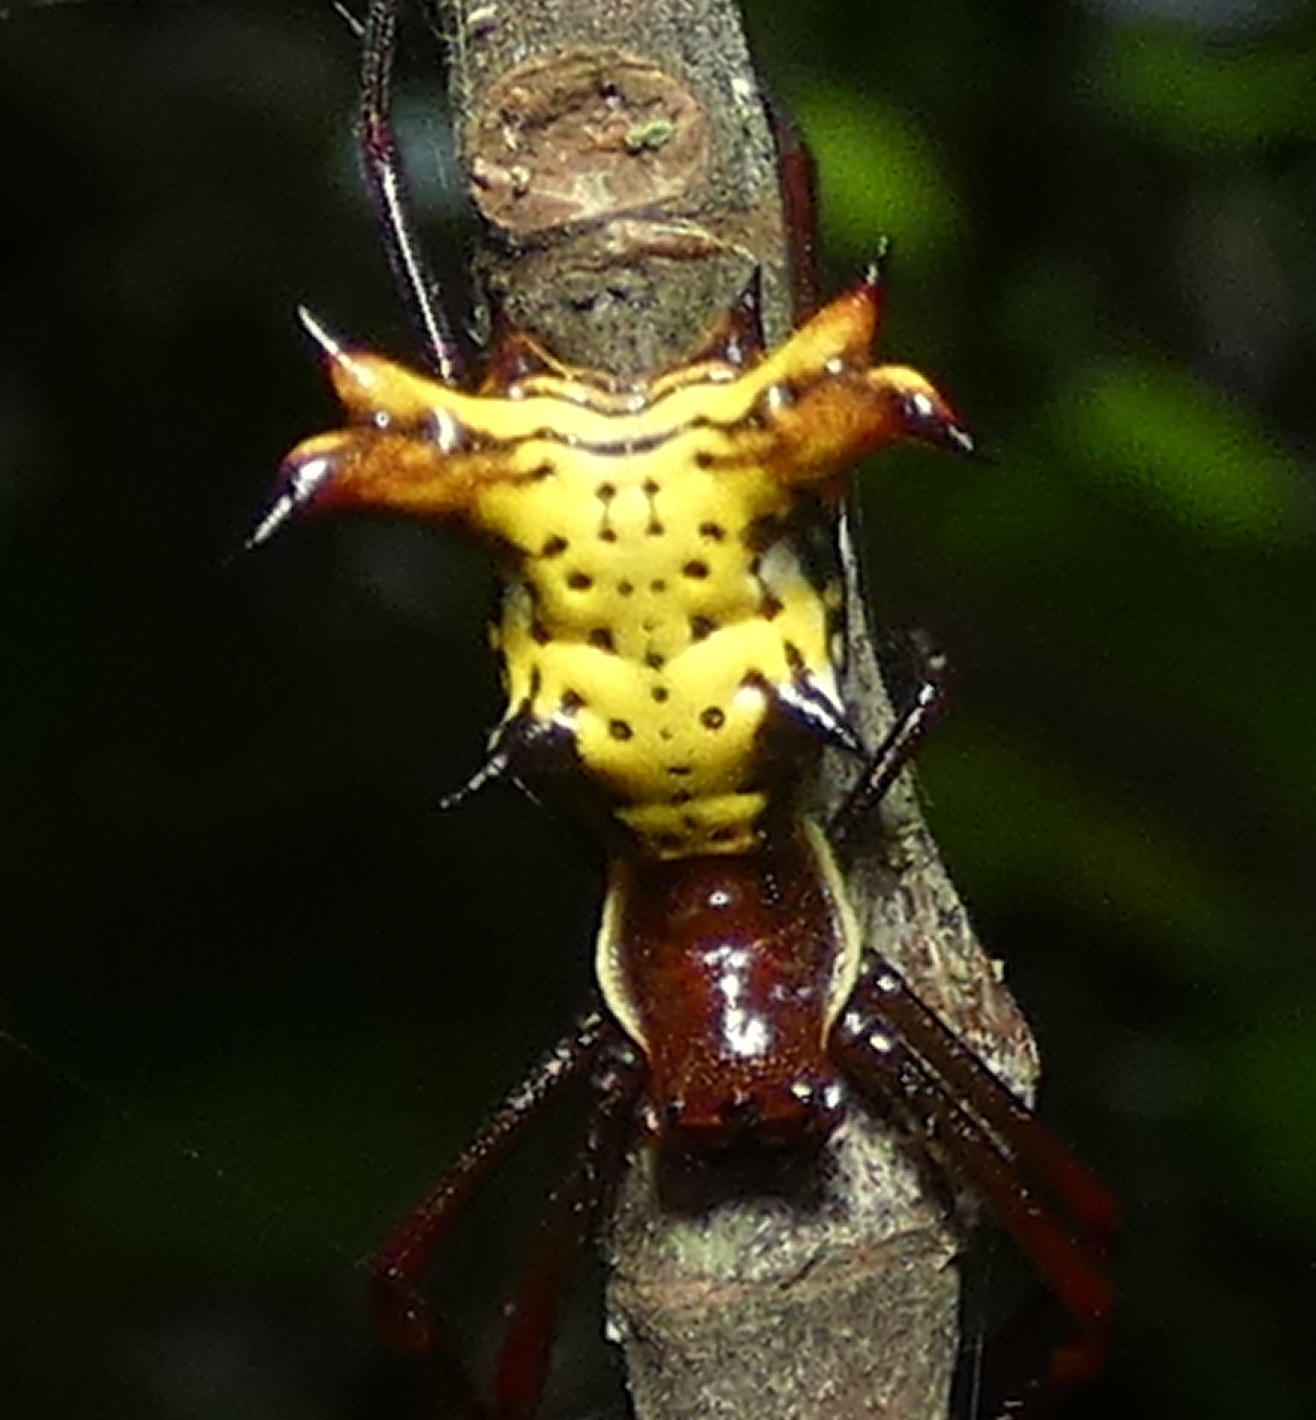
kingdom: Animalia
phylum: Arthropoda
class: Arachnida
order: Araneae
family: Araneidae
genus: Micrathena
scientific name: Micrathena fissispina
